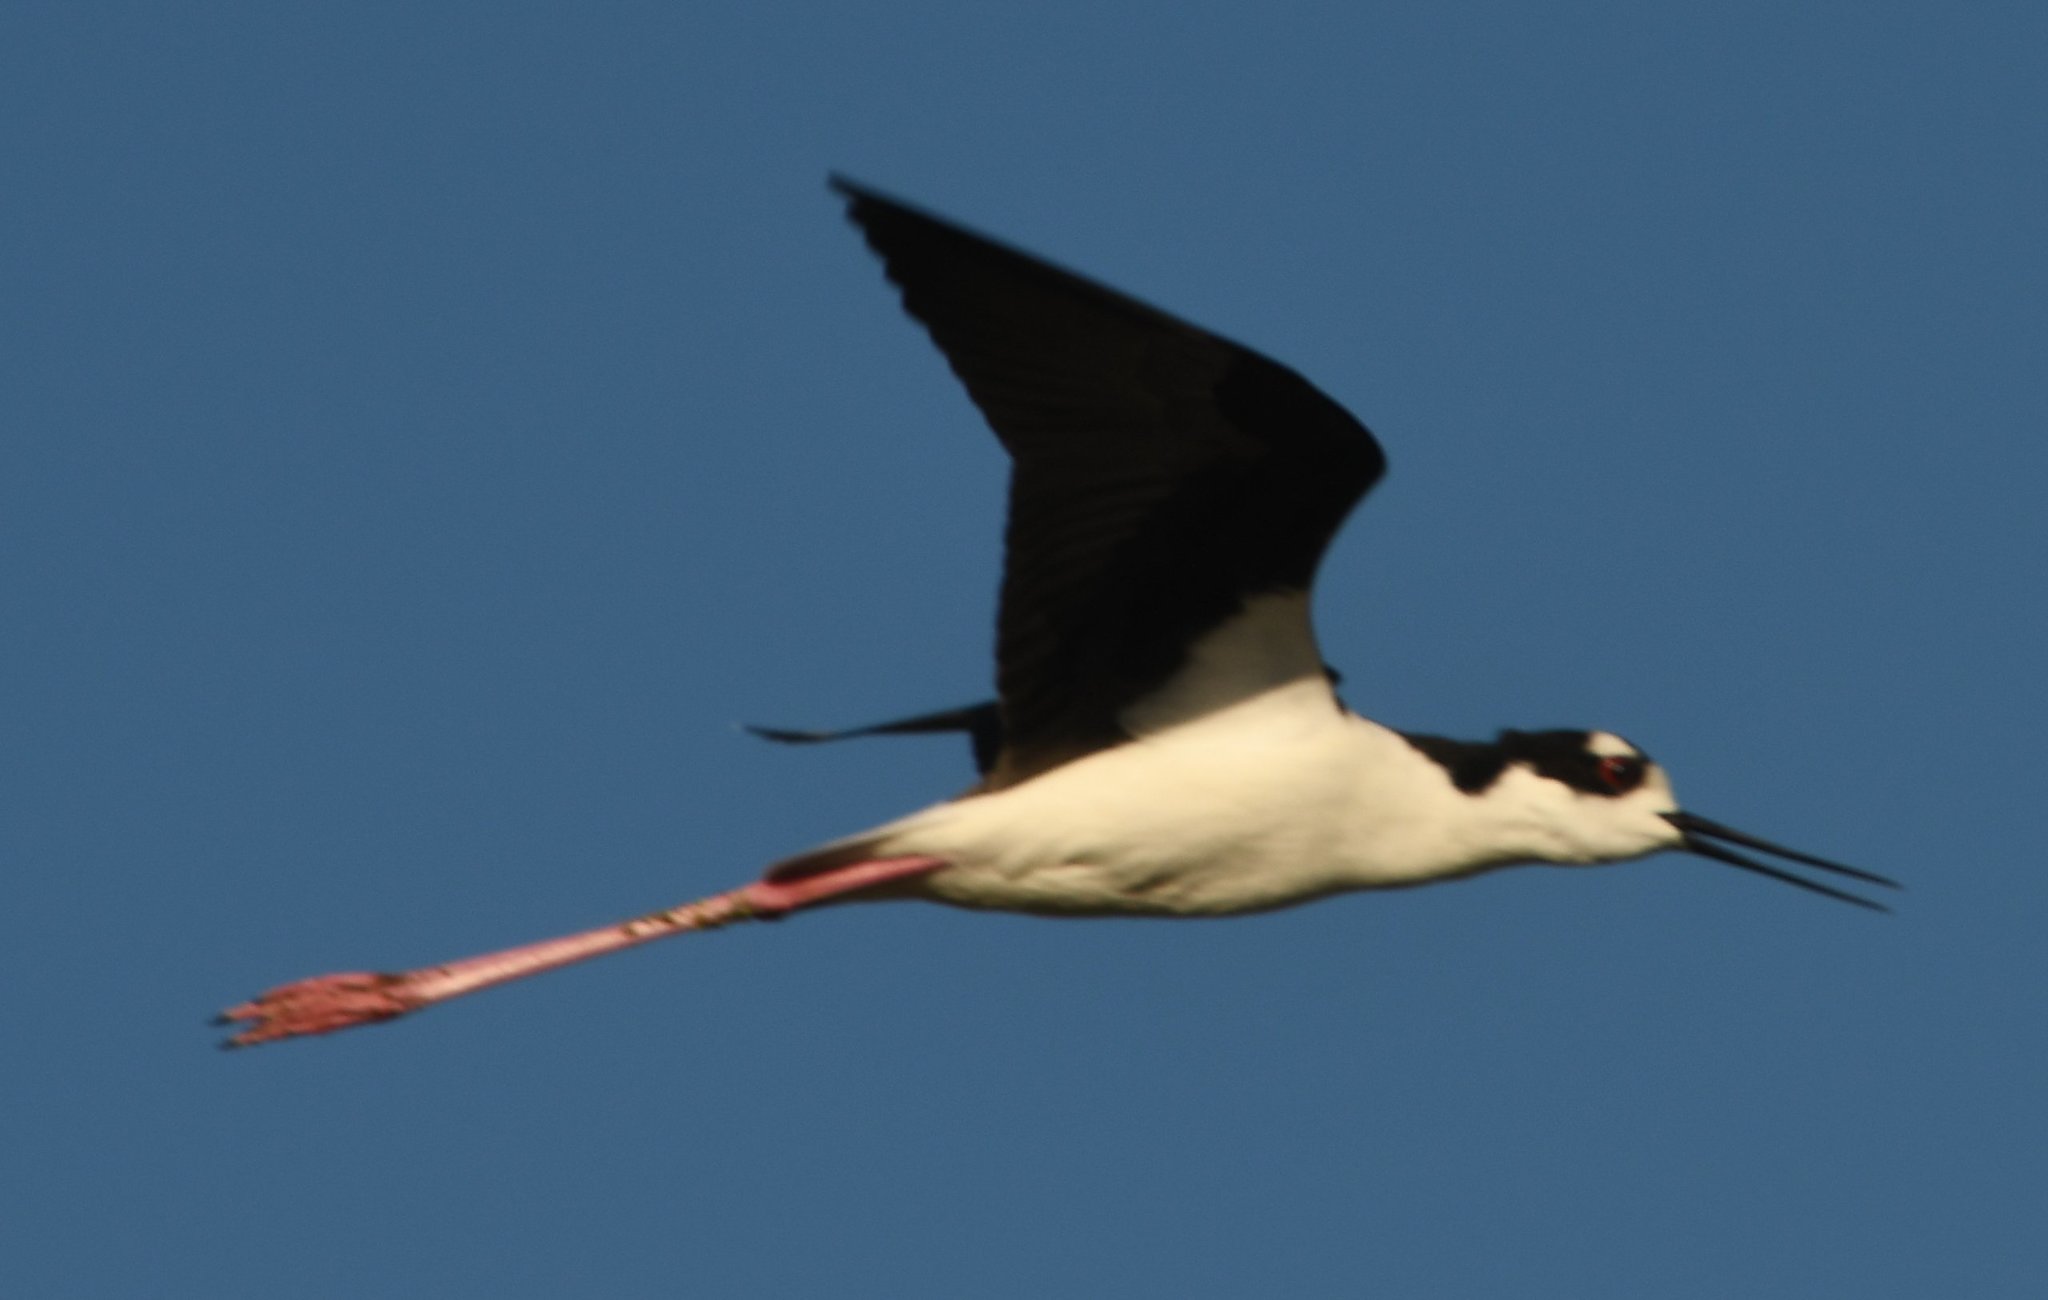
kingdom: Animalia
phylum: Chordata
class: Aves
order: Charadriiformes
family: Recurvirostridae
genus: Himantopus
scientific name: Himantopus mexicanus
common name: Black-necked stilt
